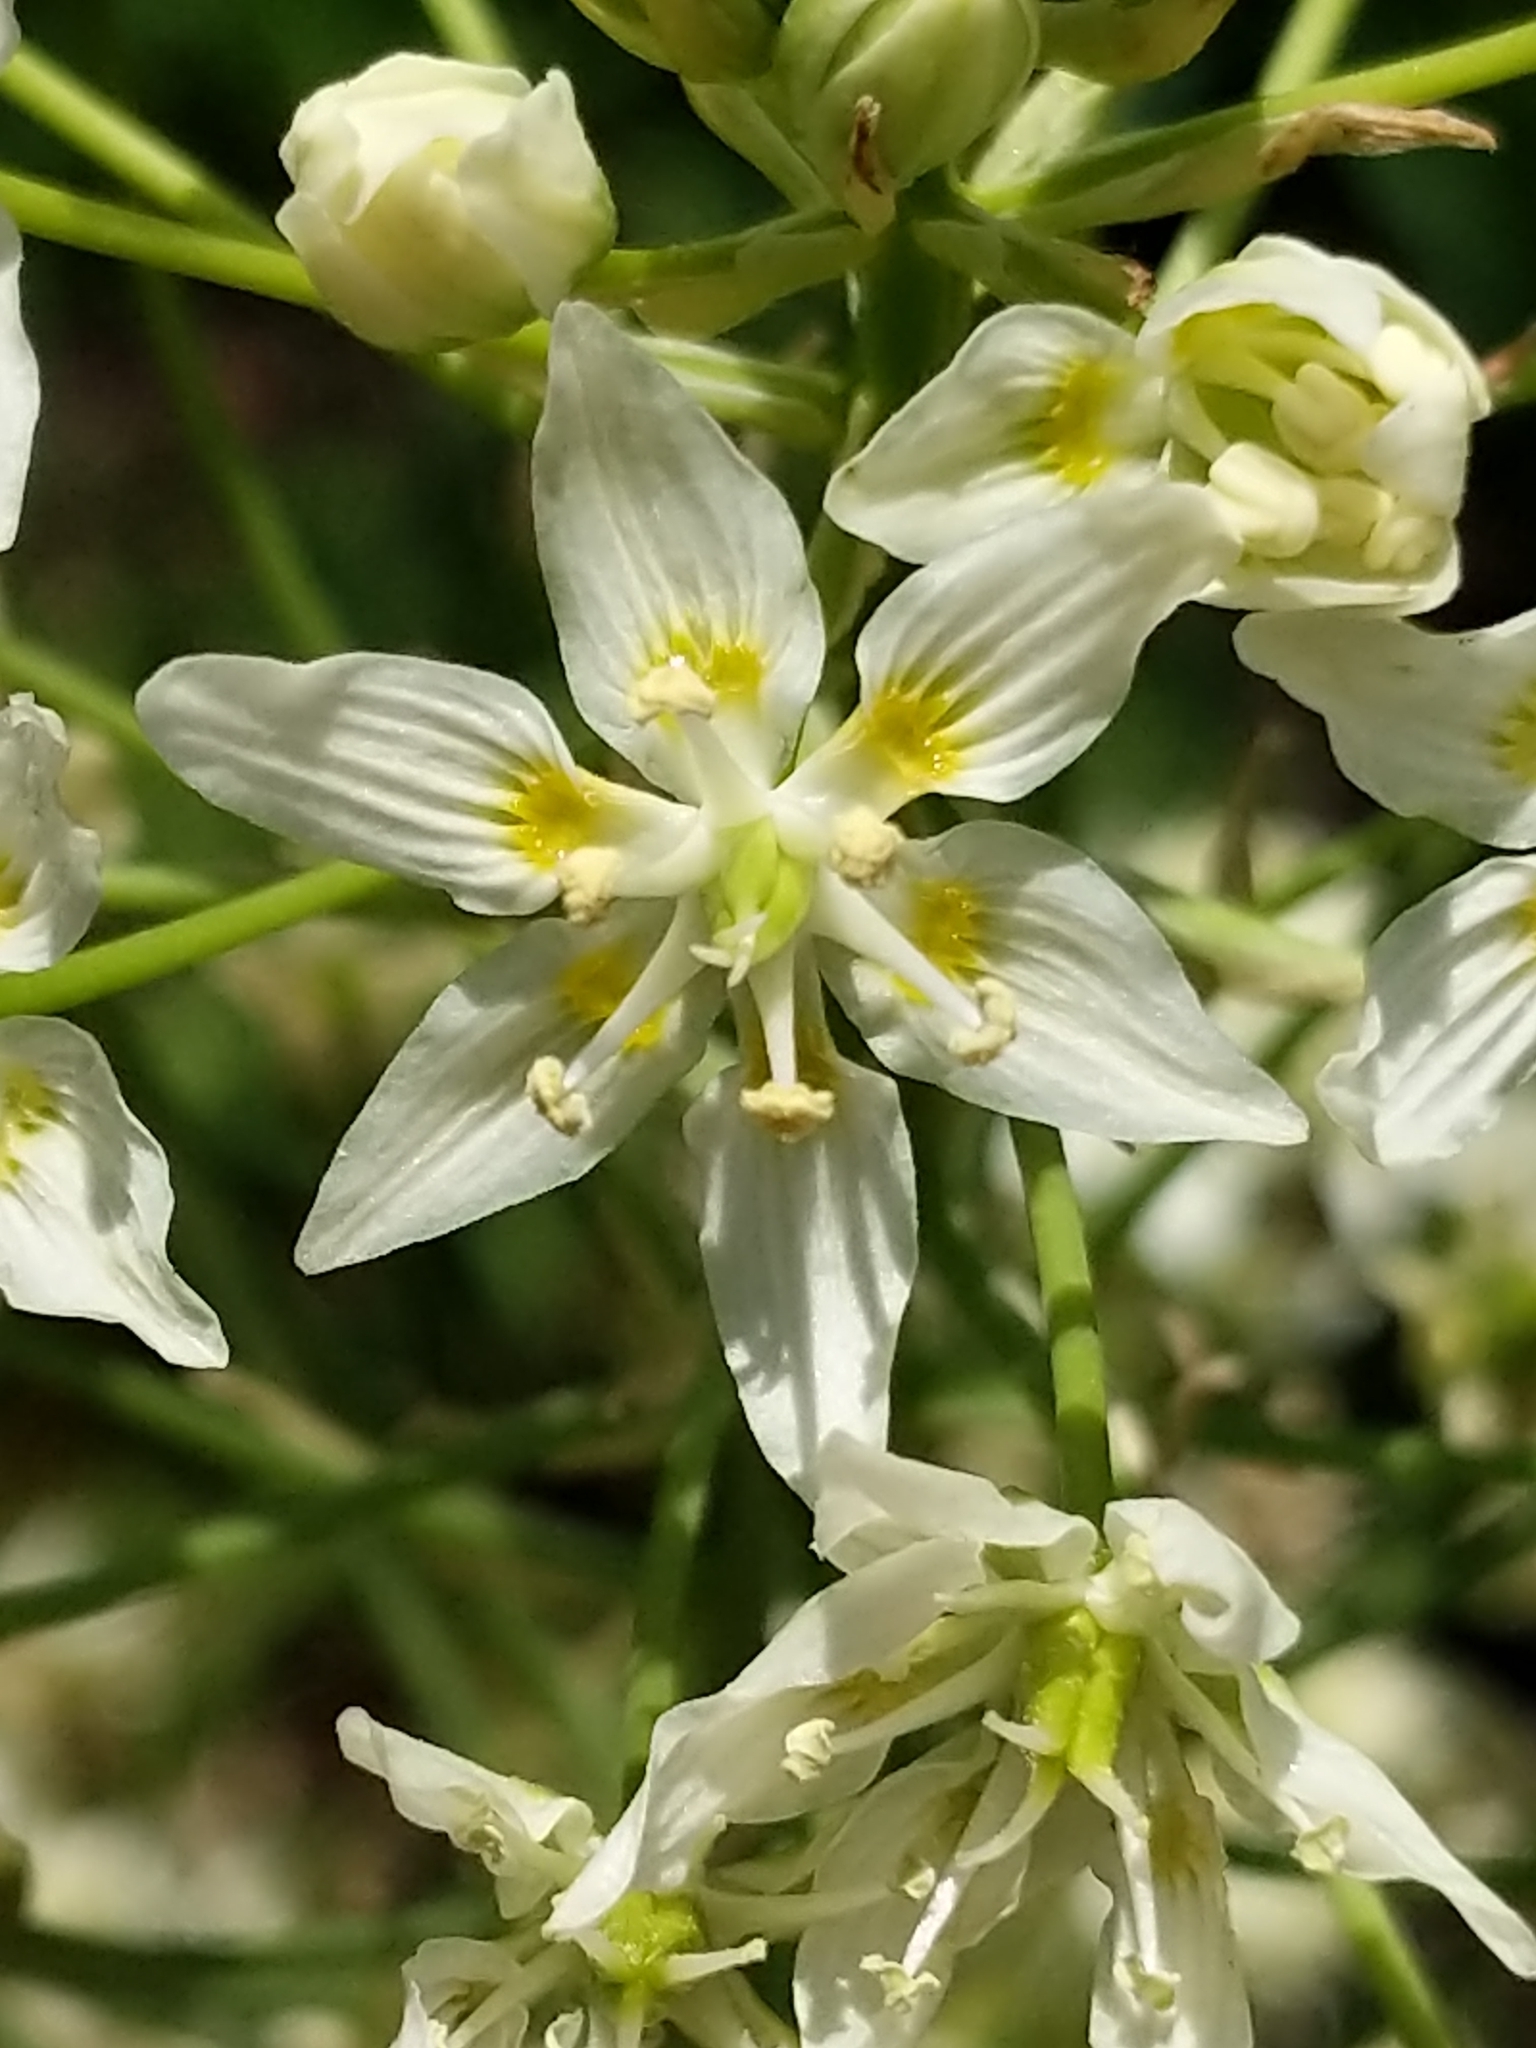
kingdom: Plantae
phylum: Tracheophyta
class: Liliopsida
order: Liliales
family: Melanthiaceae
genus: Toxicoscordion
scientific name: Toxicoscordion fremontii
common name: Fremont's death camas
